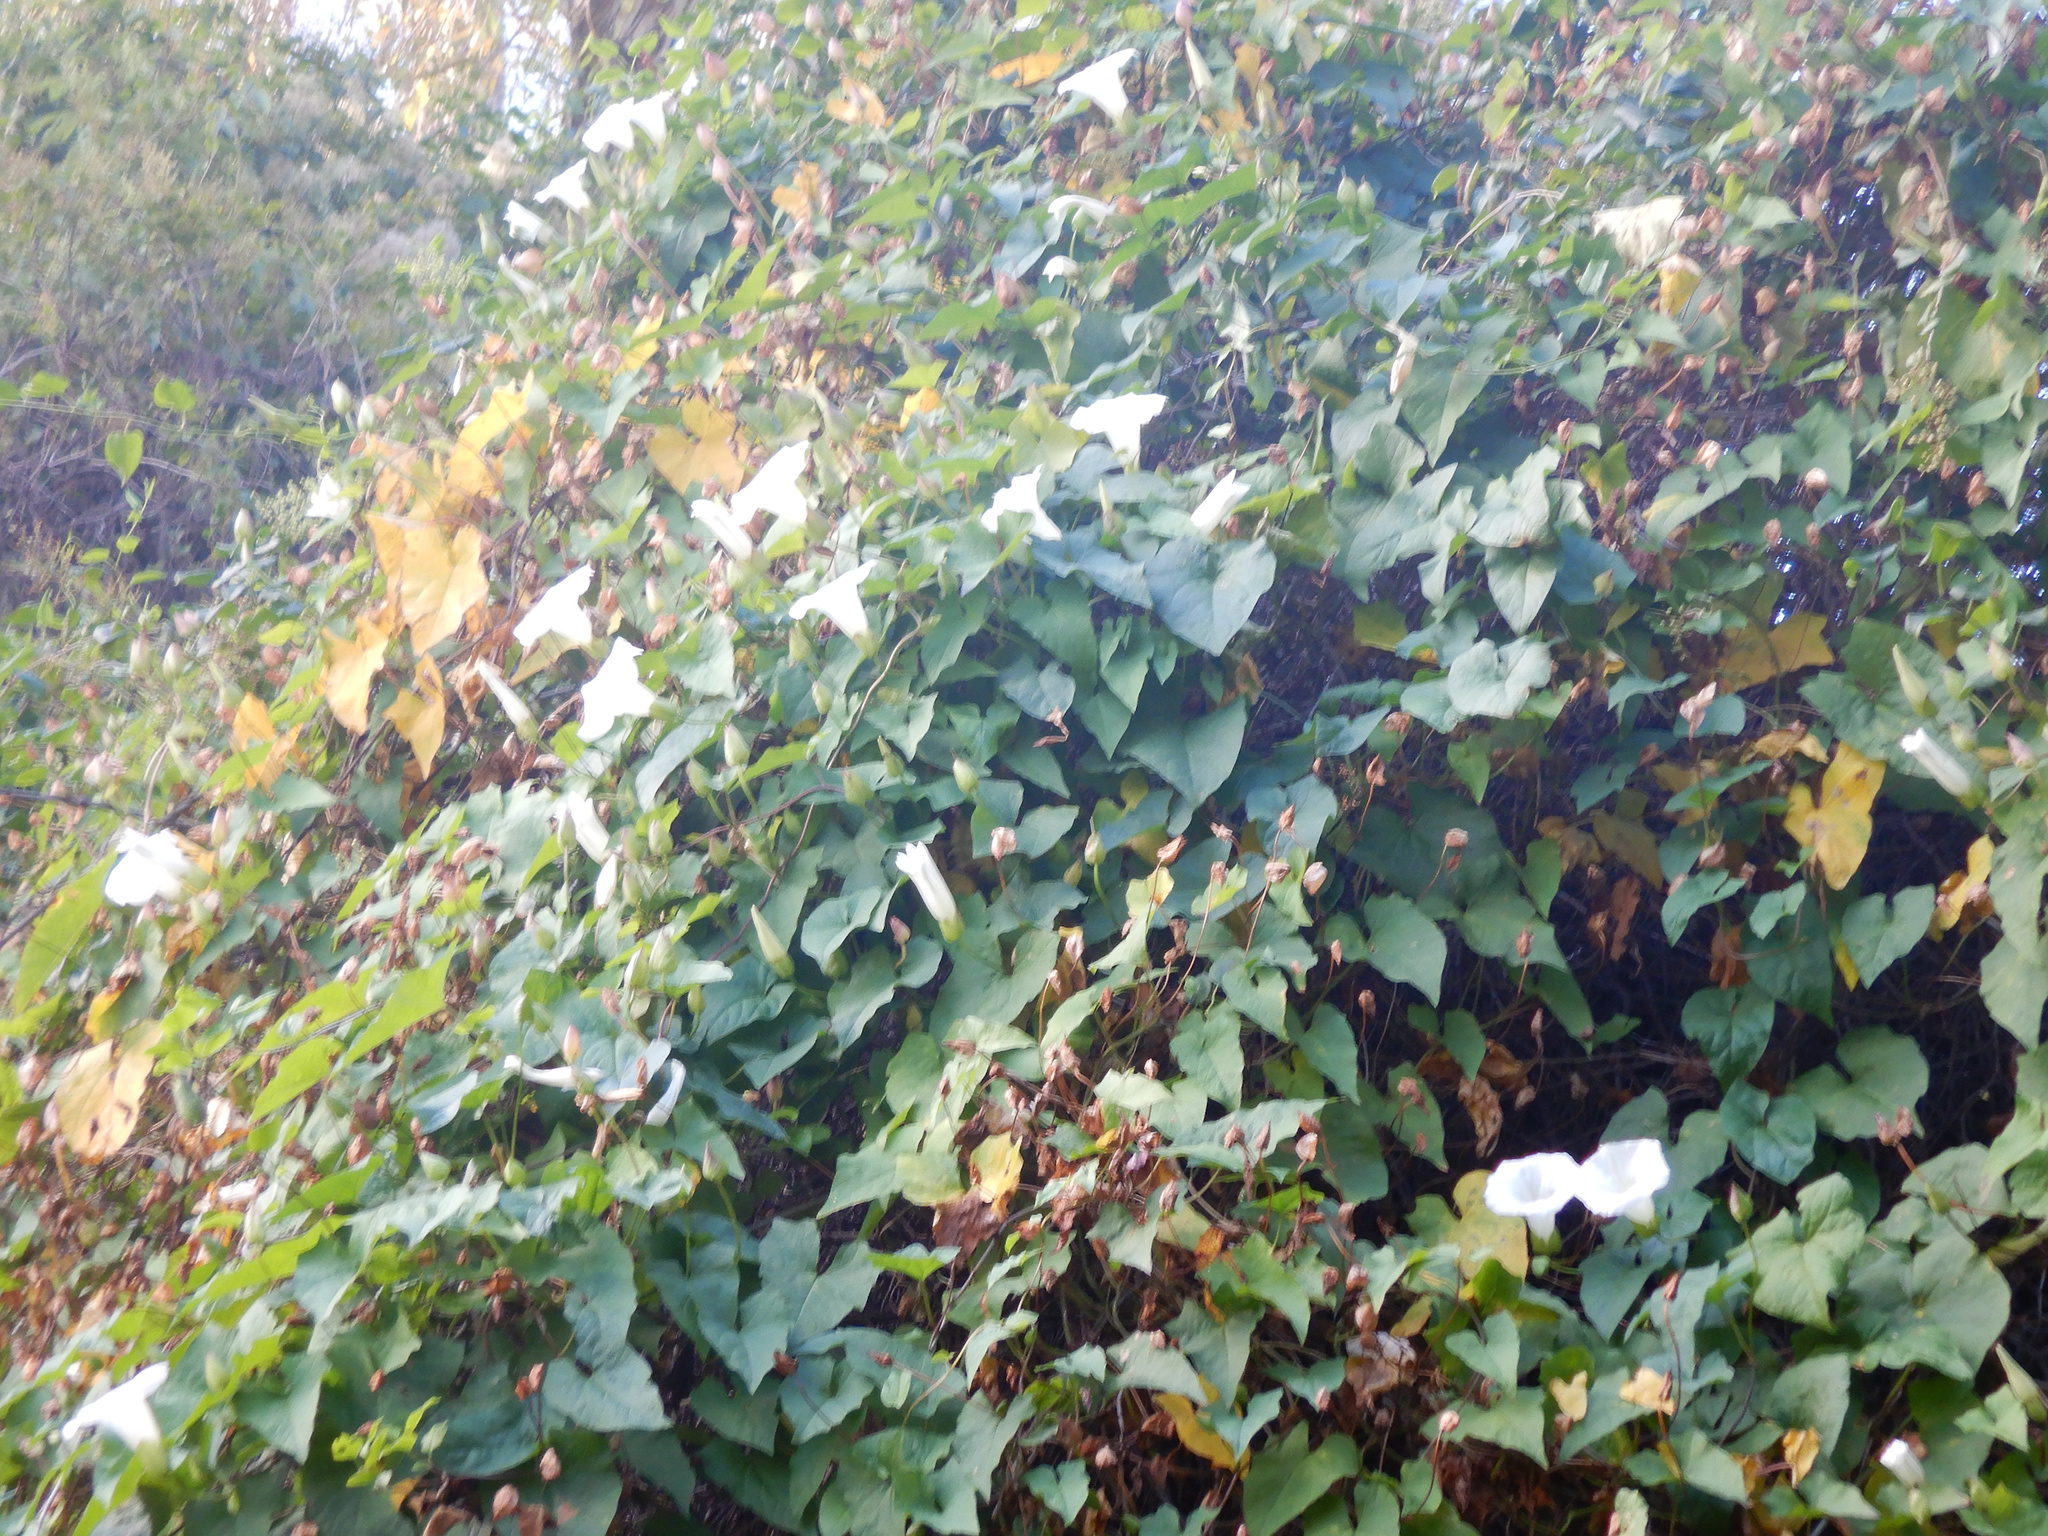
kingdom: Plantae
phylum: Tracheophyta
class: Magnoliopsida
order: Solanales
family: Convolvulaceae
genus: Calystegia
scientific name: Calystegia silvatica
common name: Large bindweed
